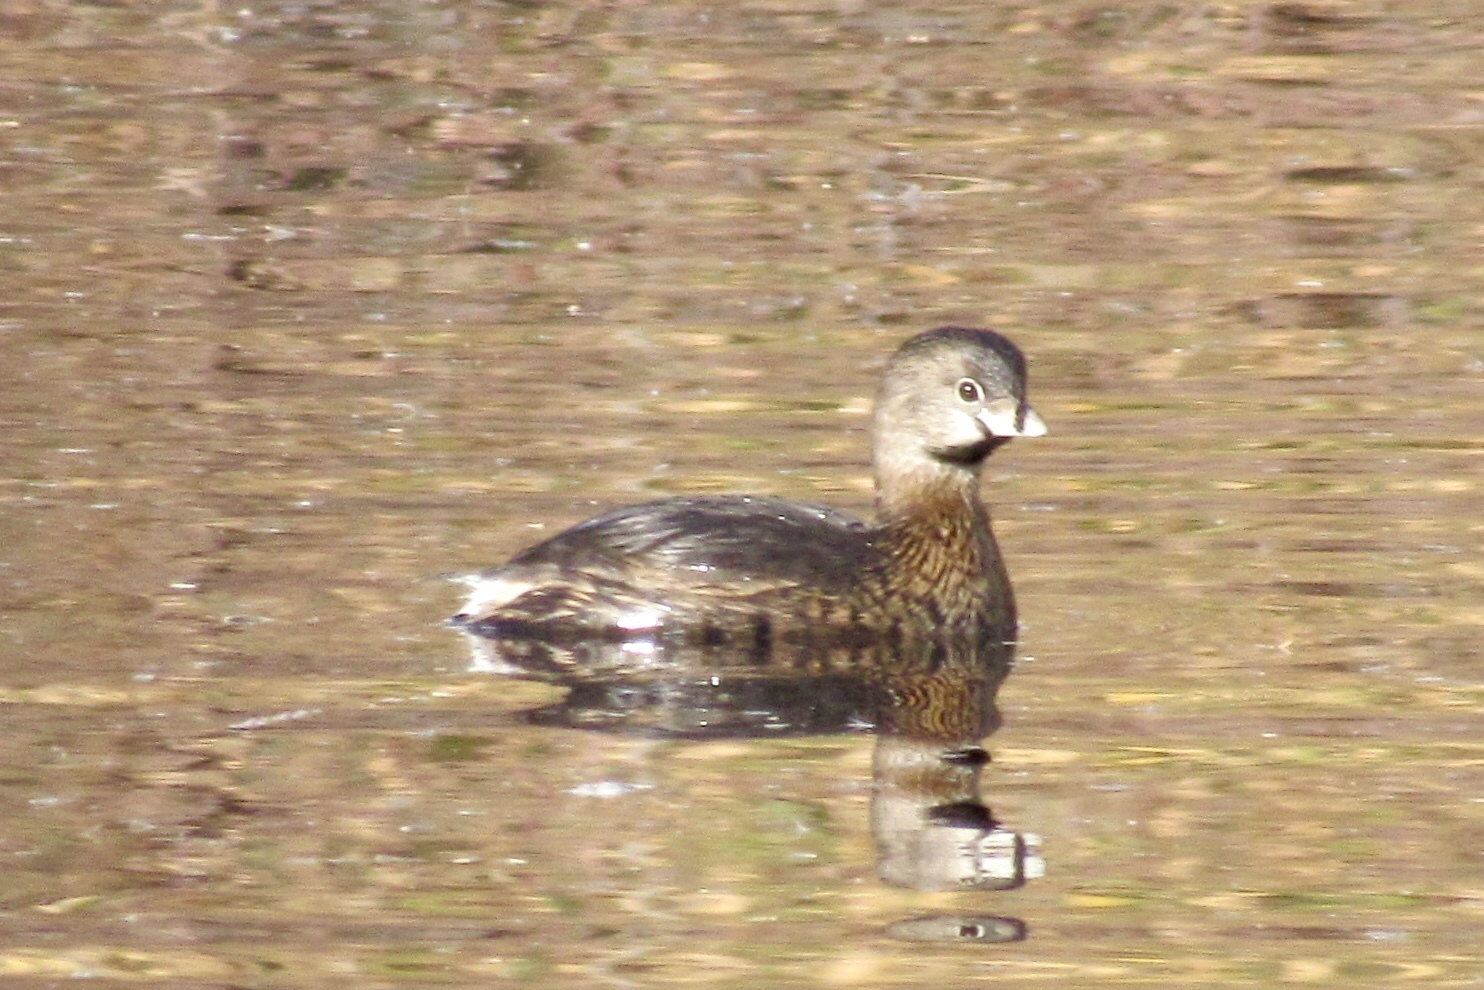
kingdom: Animalia
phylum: Chordata
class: Aves
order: Podicipediformes
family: Podicipedidae
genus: Podilymbus
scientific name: Podilymbus podiceps
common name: Pied-billed grebe
